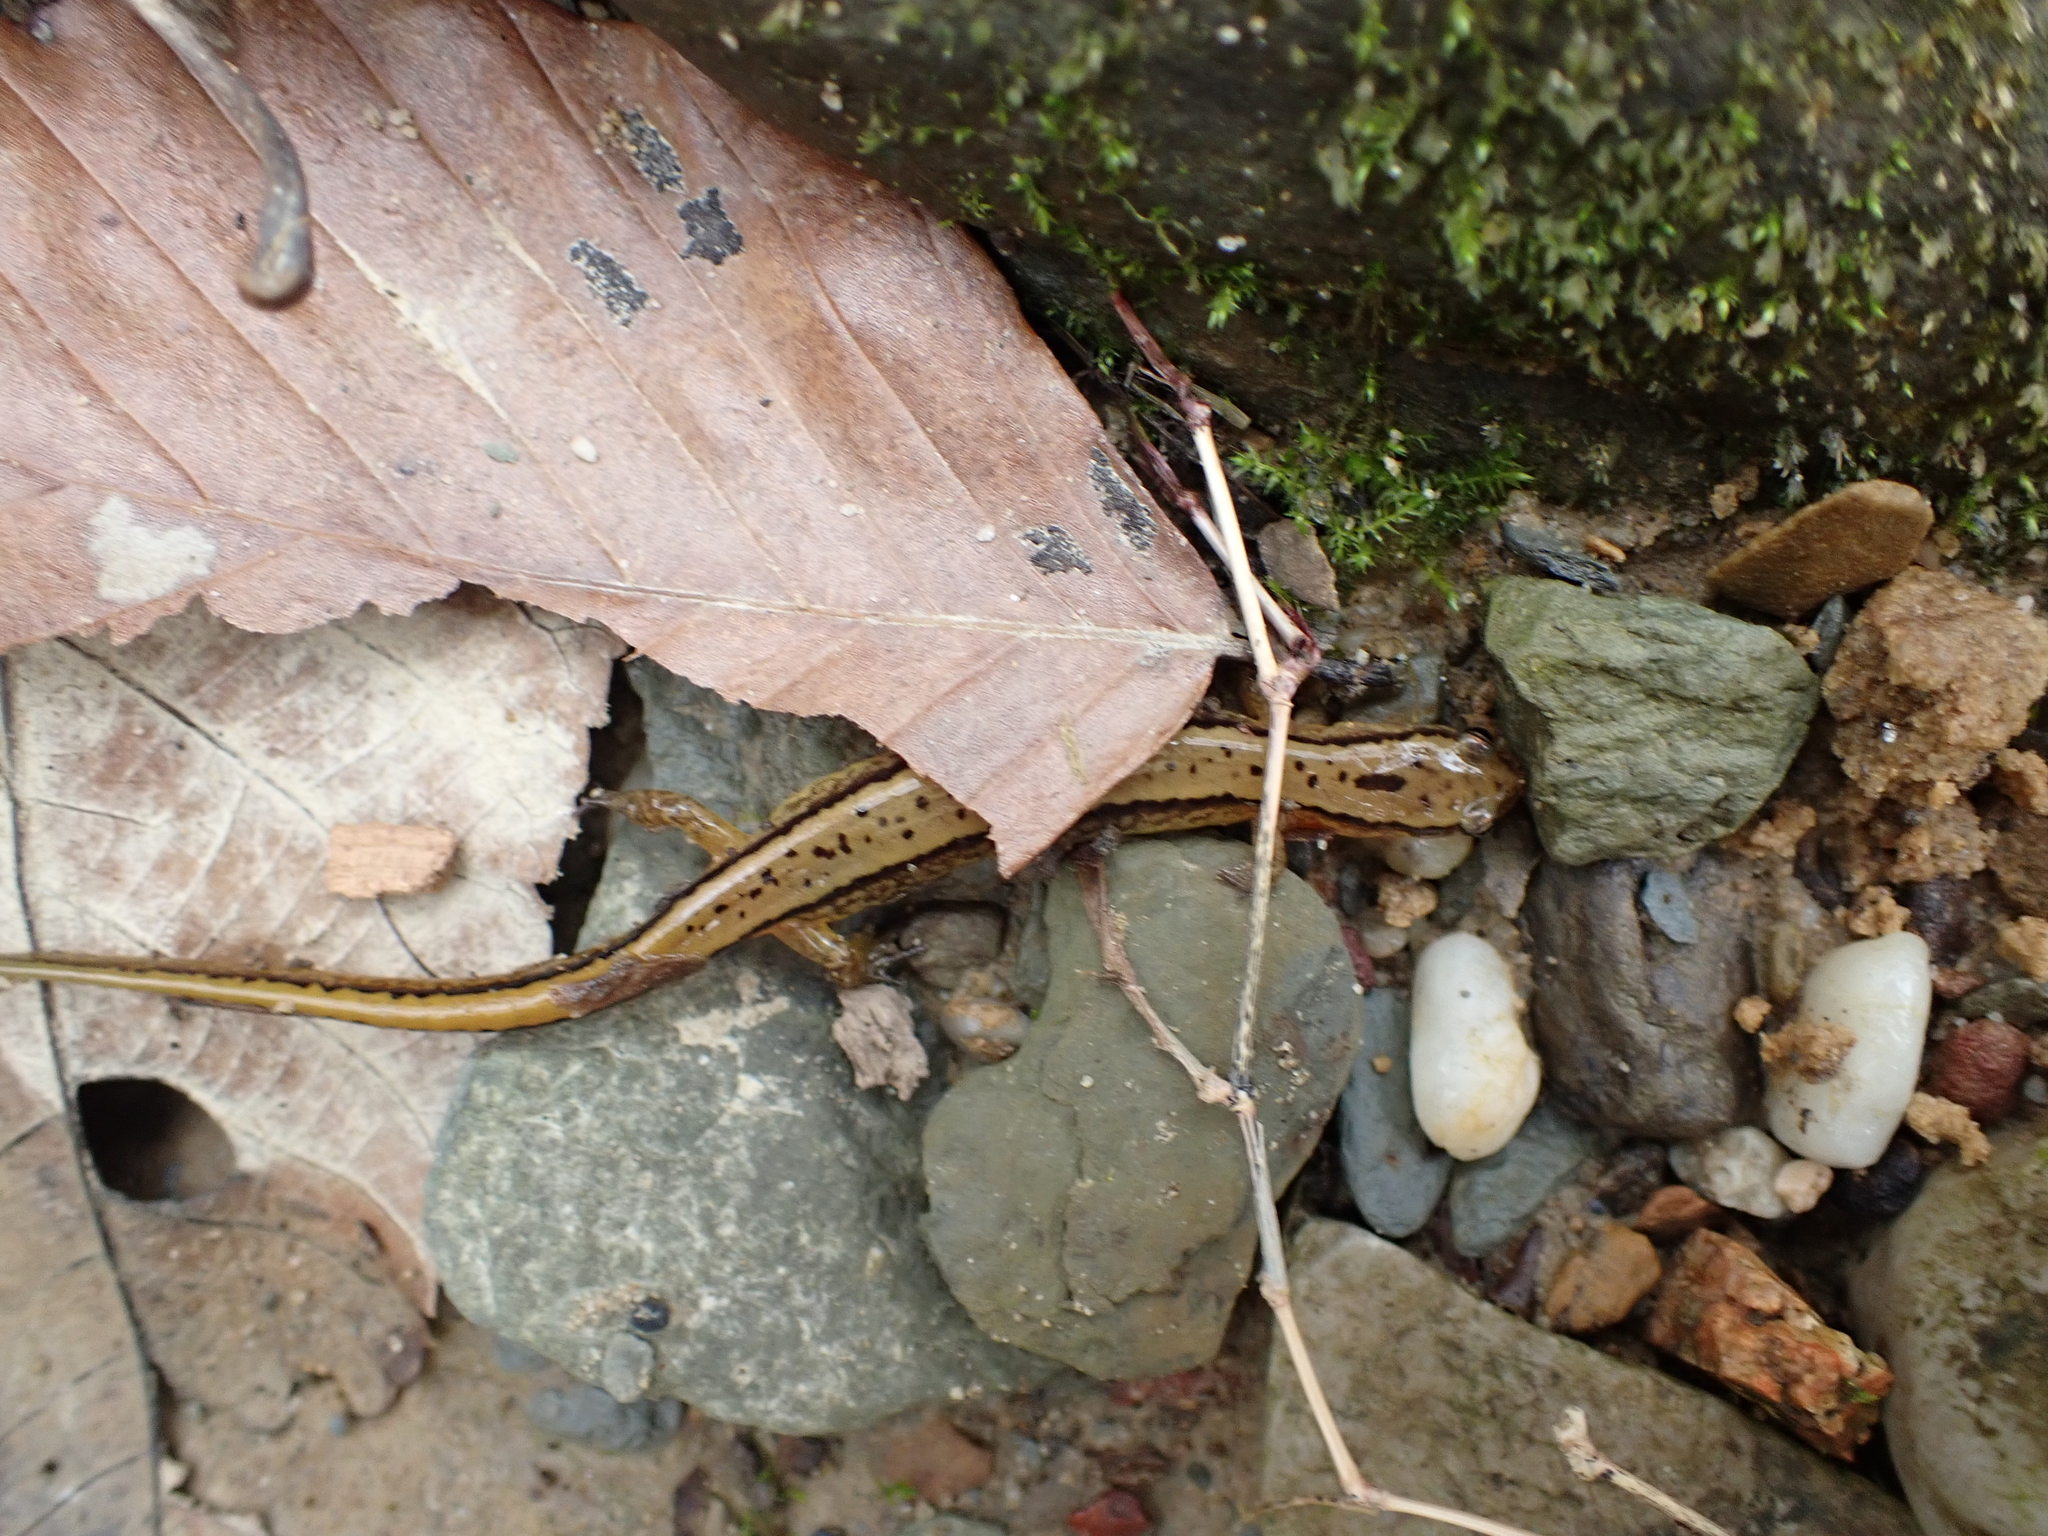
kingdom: Animalia
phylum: Chordata
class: Amphibia
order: Caudata
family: Plethodontidae
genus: Eurycea
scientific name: Eurycea cirrigera
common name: Southern two-lined salamander
